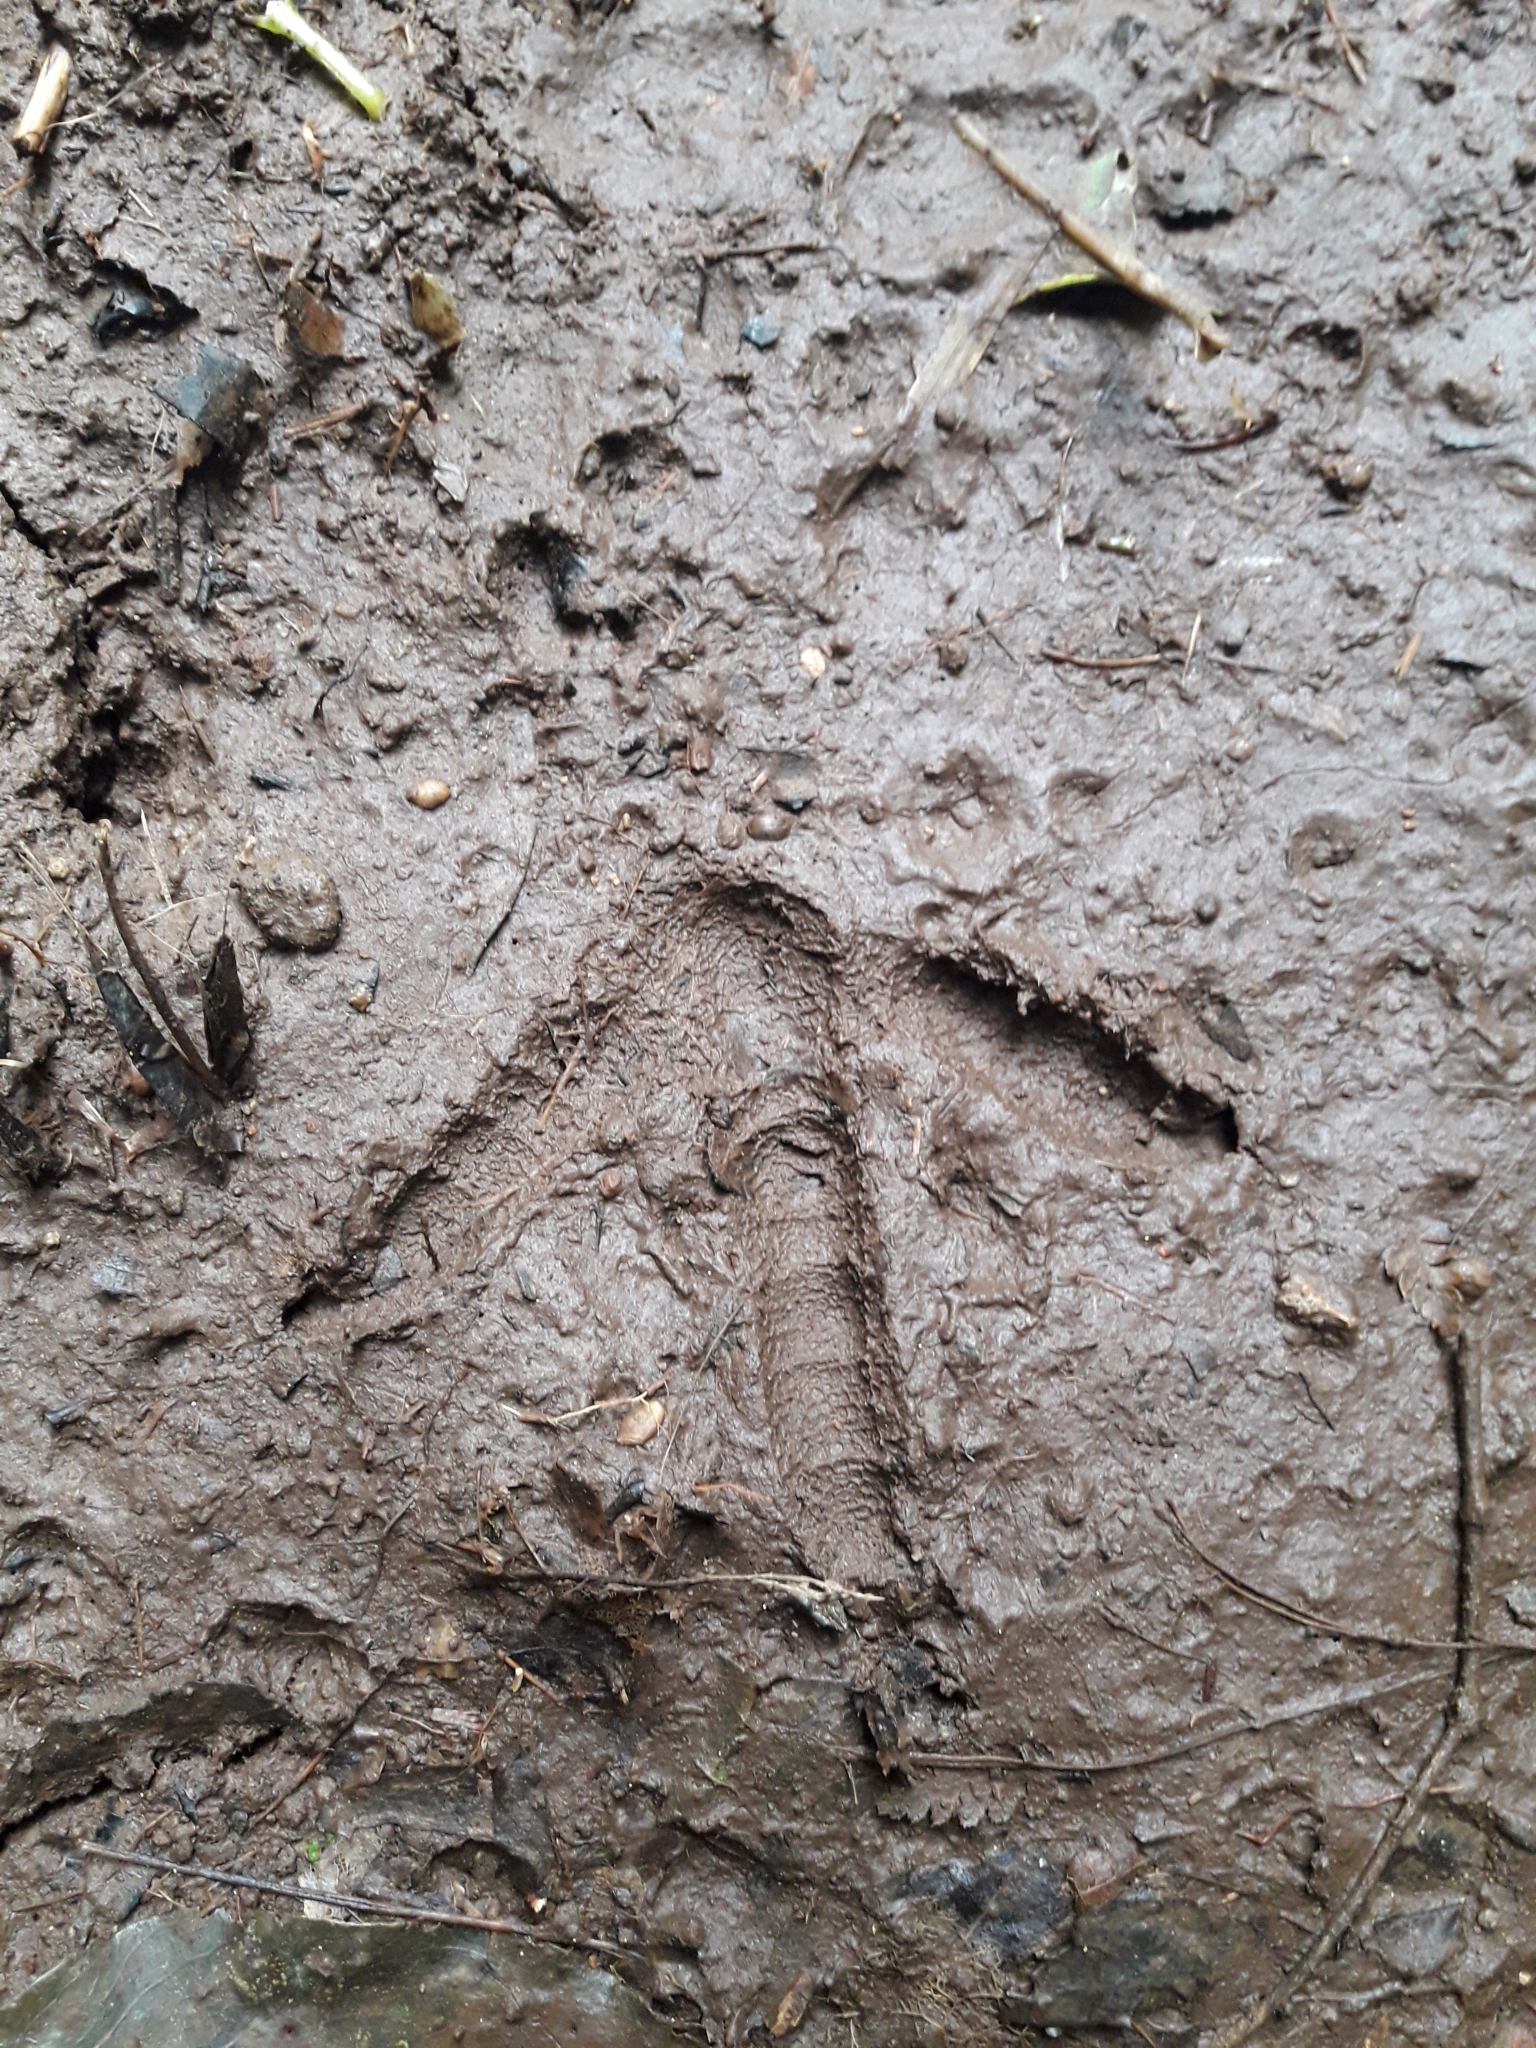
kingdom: Animalia
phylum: Chordata
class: Aves
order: Apterygiformes
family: Apterygidae
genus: Apteryx
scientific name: Apteryx mantelli
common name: North island brown kiwi
